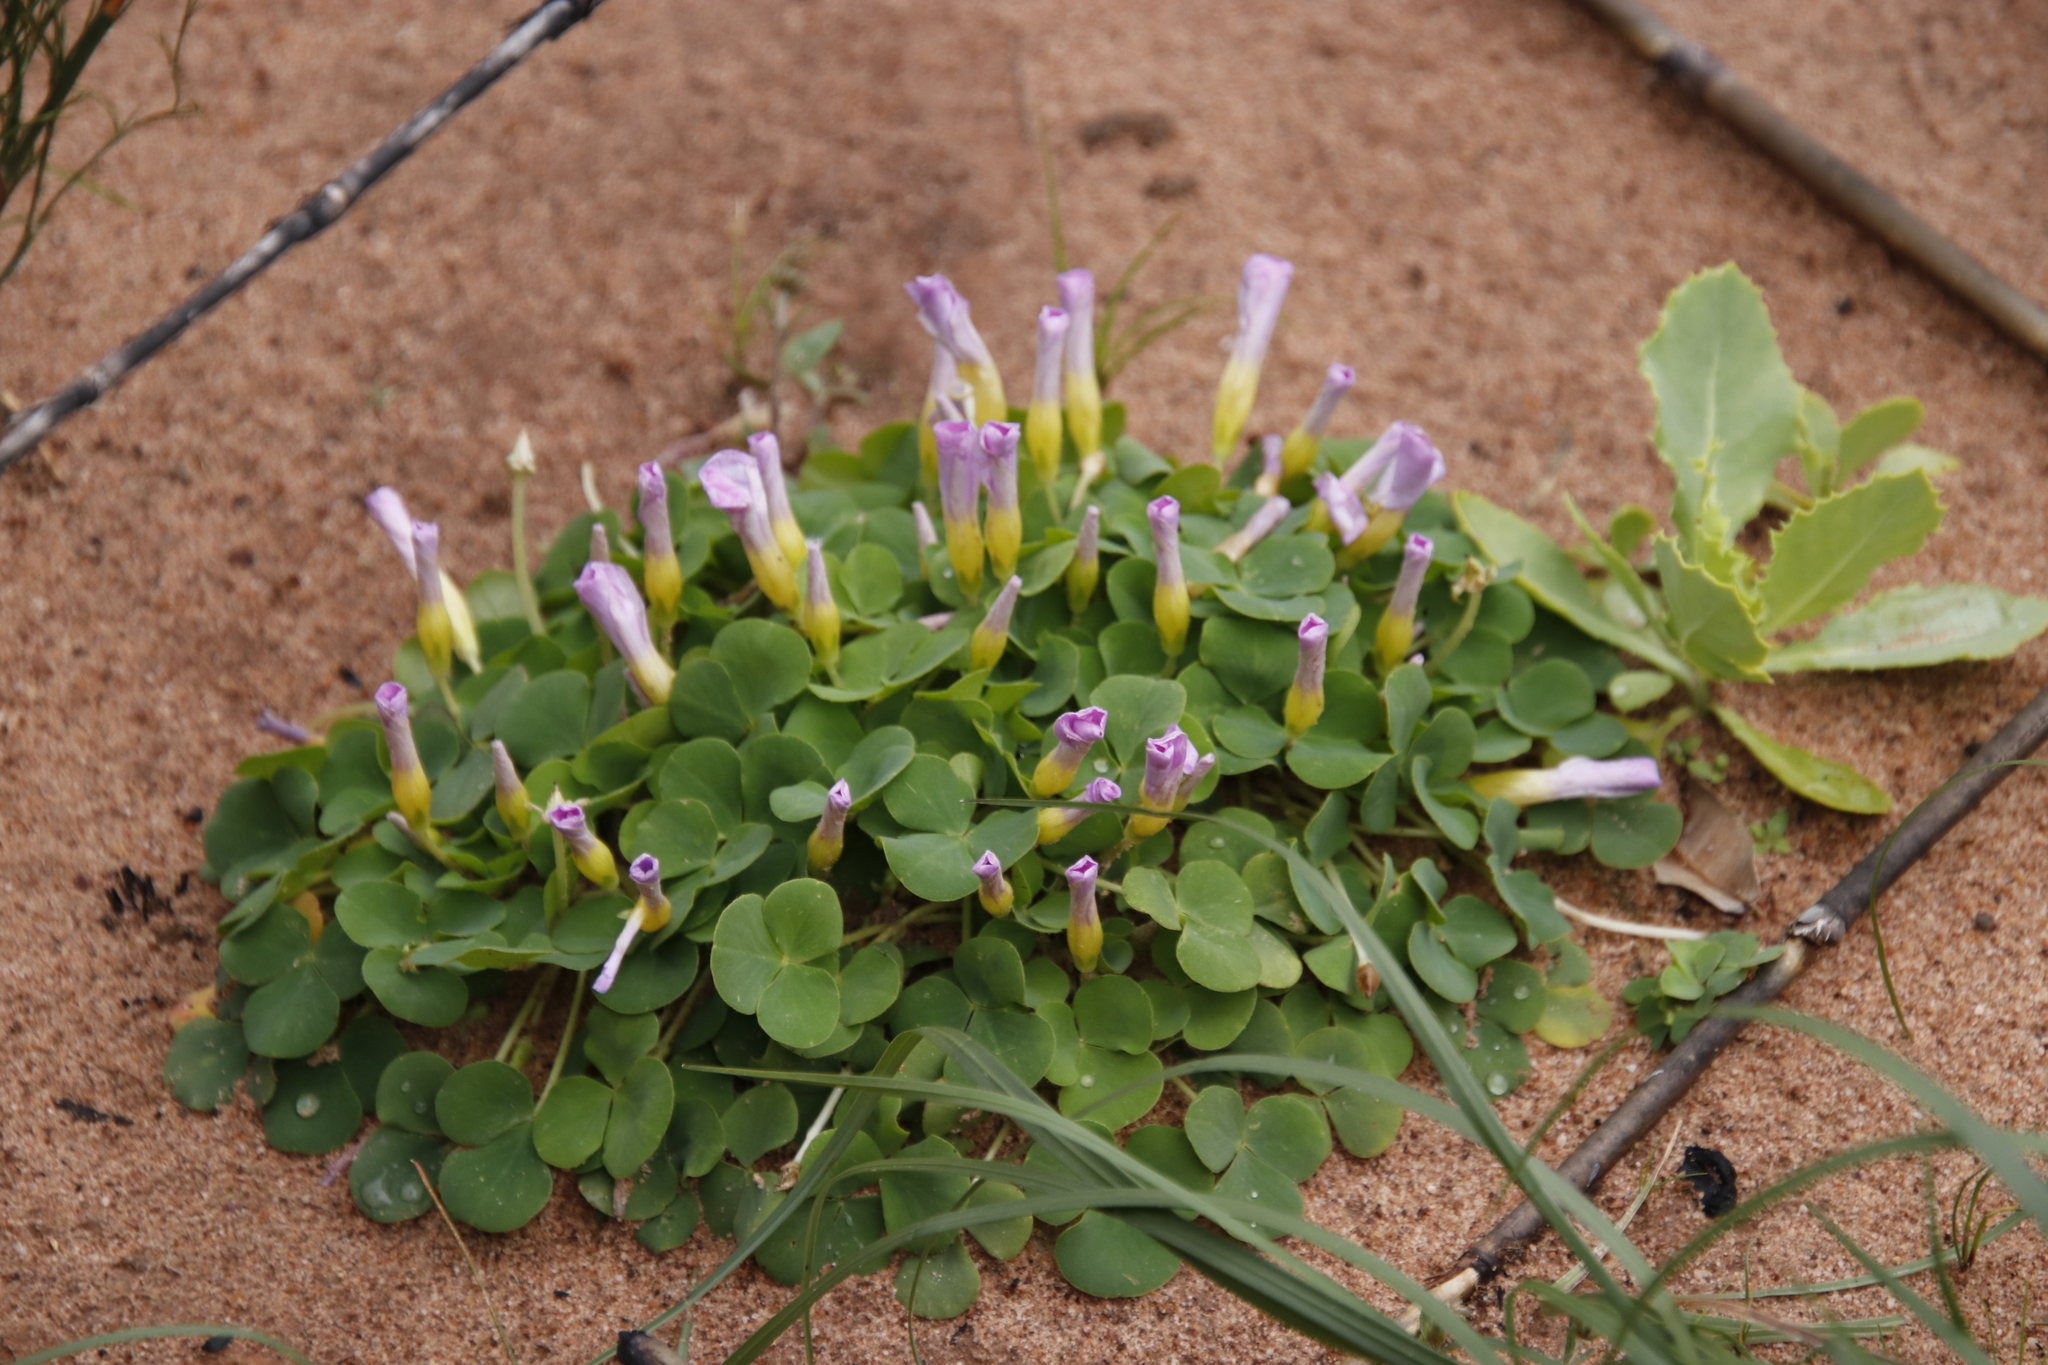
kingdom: Plantae
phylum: Tracheophyta
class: Magnoliopsida
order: Oxalidales
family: Oxalidaceae
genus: Oxalis
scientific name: Oxalis purpurea
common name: Purple woodsorrel
